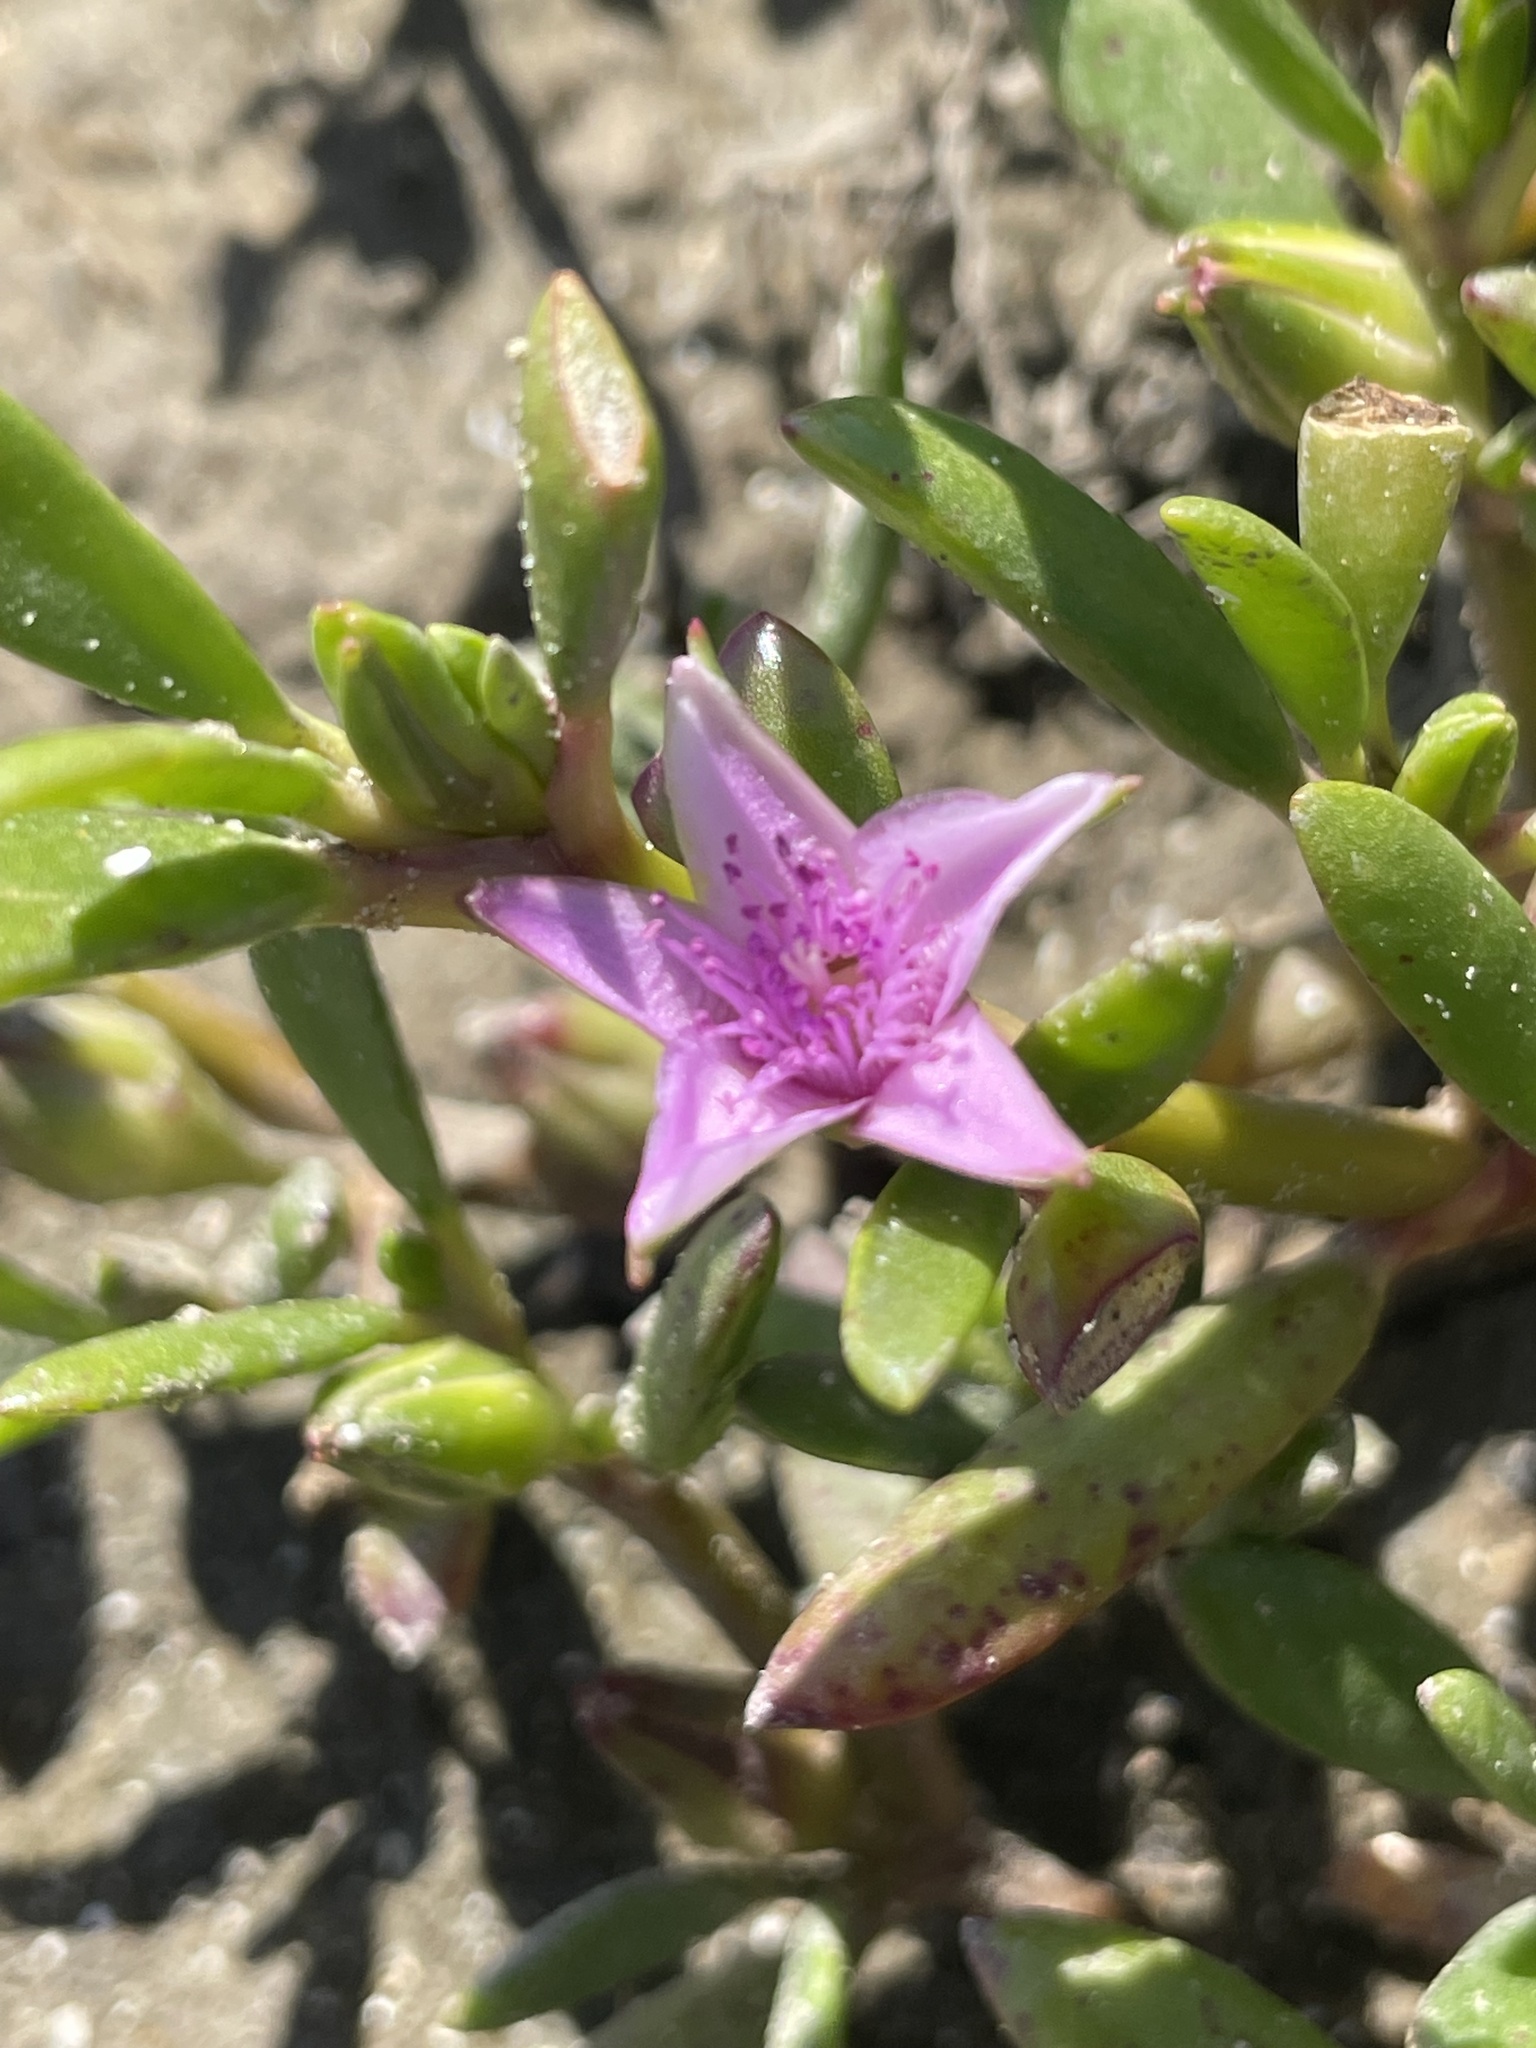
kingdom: Plantae
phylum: Tracheophyta
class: Magnoliopsida
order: Caryophyllales
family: Aizoaceae
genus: Sesuvium
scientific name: Sesuvium portulacastrum
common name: Sea-purslane
